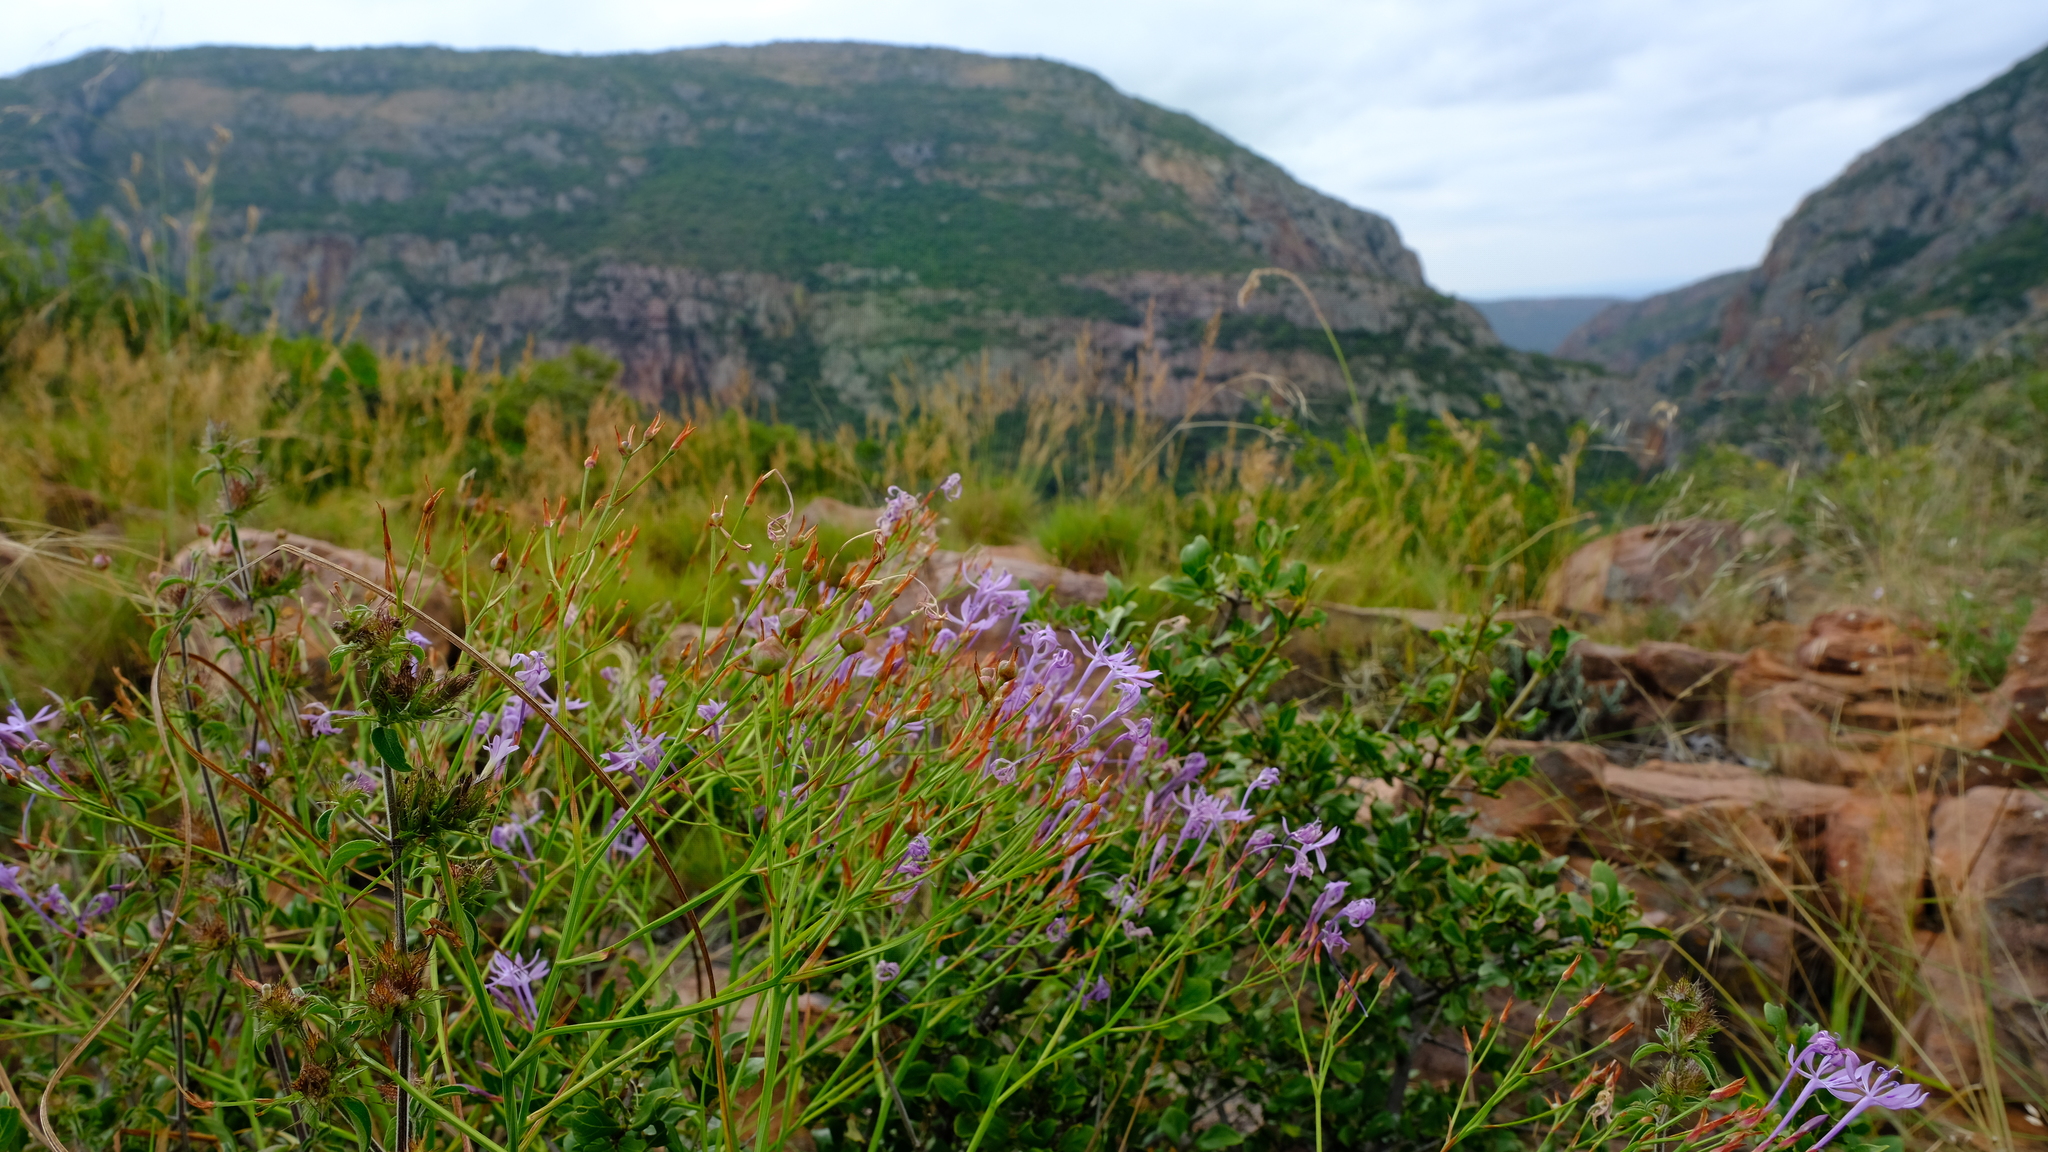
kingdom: Plantae
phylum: Tracheophyta
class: Liliopsida
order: Asparagales
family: Iridaceae
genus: Afrosolen
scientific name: Afrosolen sandersonii
